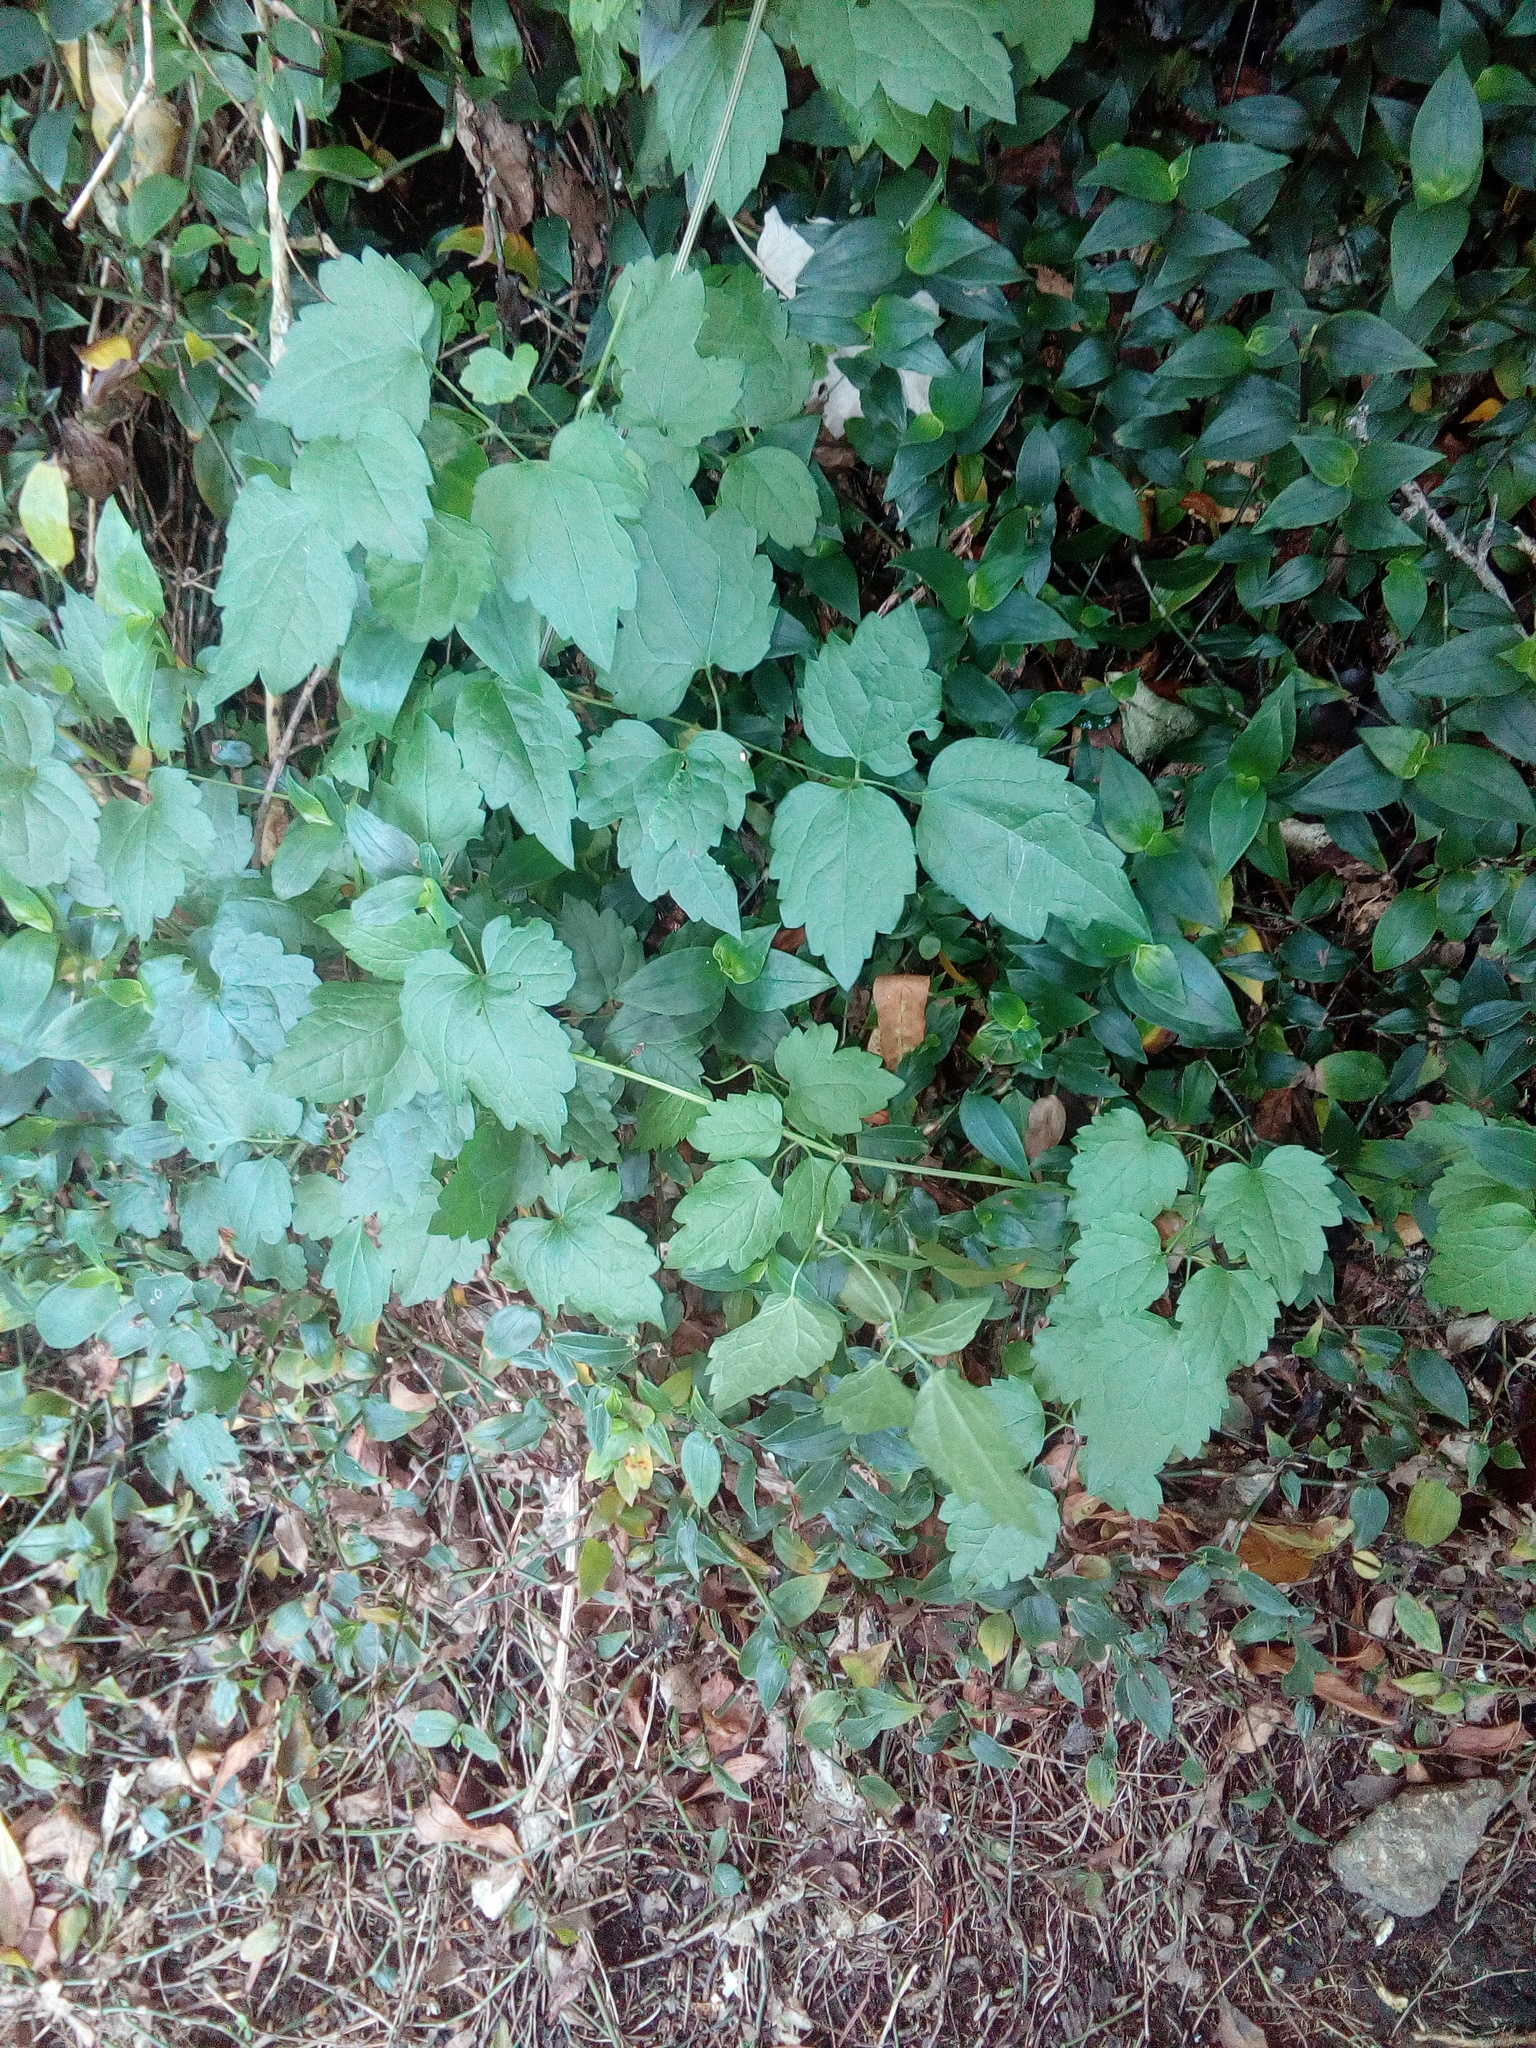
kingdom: Plantae
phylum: Tracheophyta
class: Magnoliopsida
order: Ranunculales
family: Ranunculaceae
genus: Clematis
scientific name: Clematis vitalba
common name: Evergreen clematis
